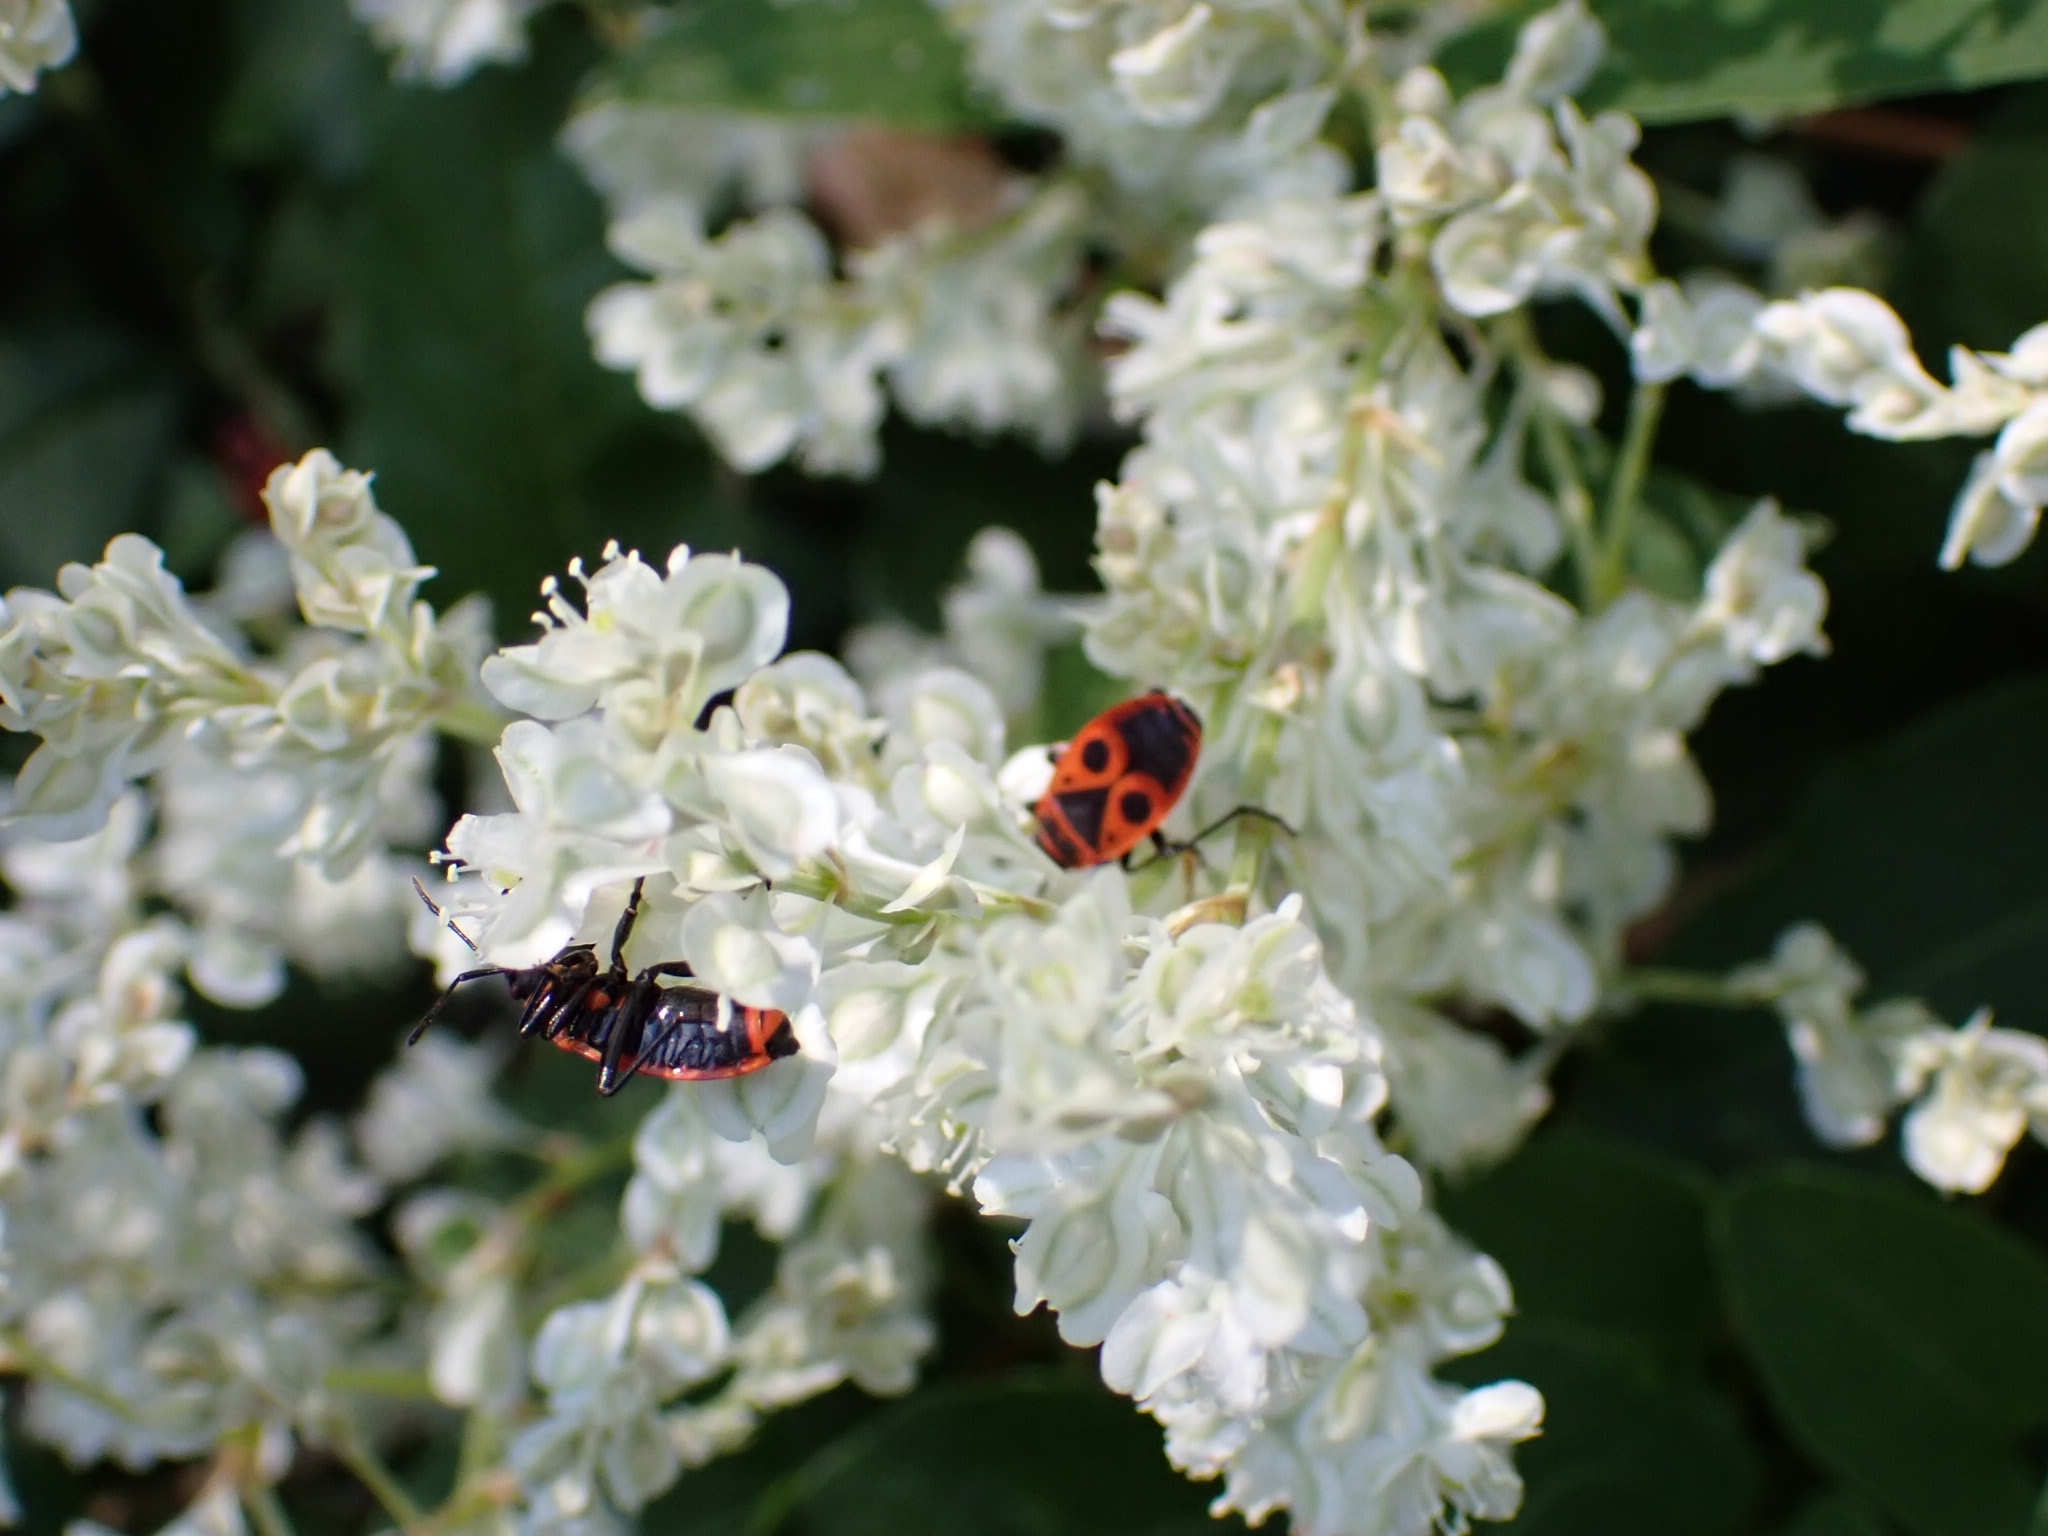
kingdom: Animalia
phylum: Arthropoda
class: Insecta
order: Hemiptera
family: Pyrrhocoridae
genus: Pyrrhocoris
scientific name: Pyrrhocoris apterus
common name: Firebug
